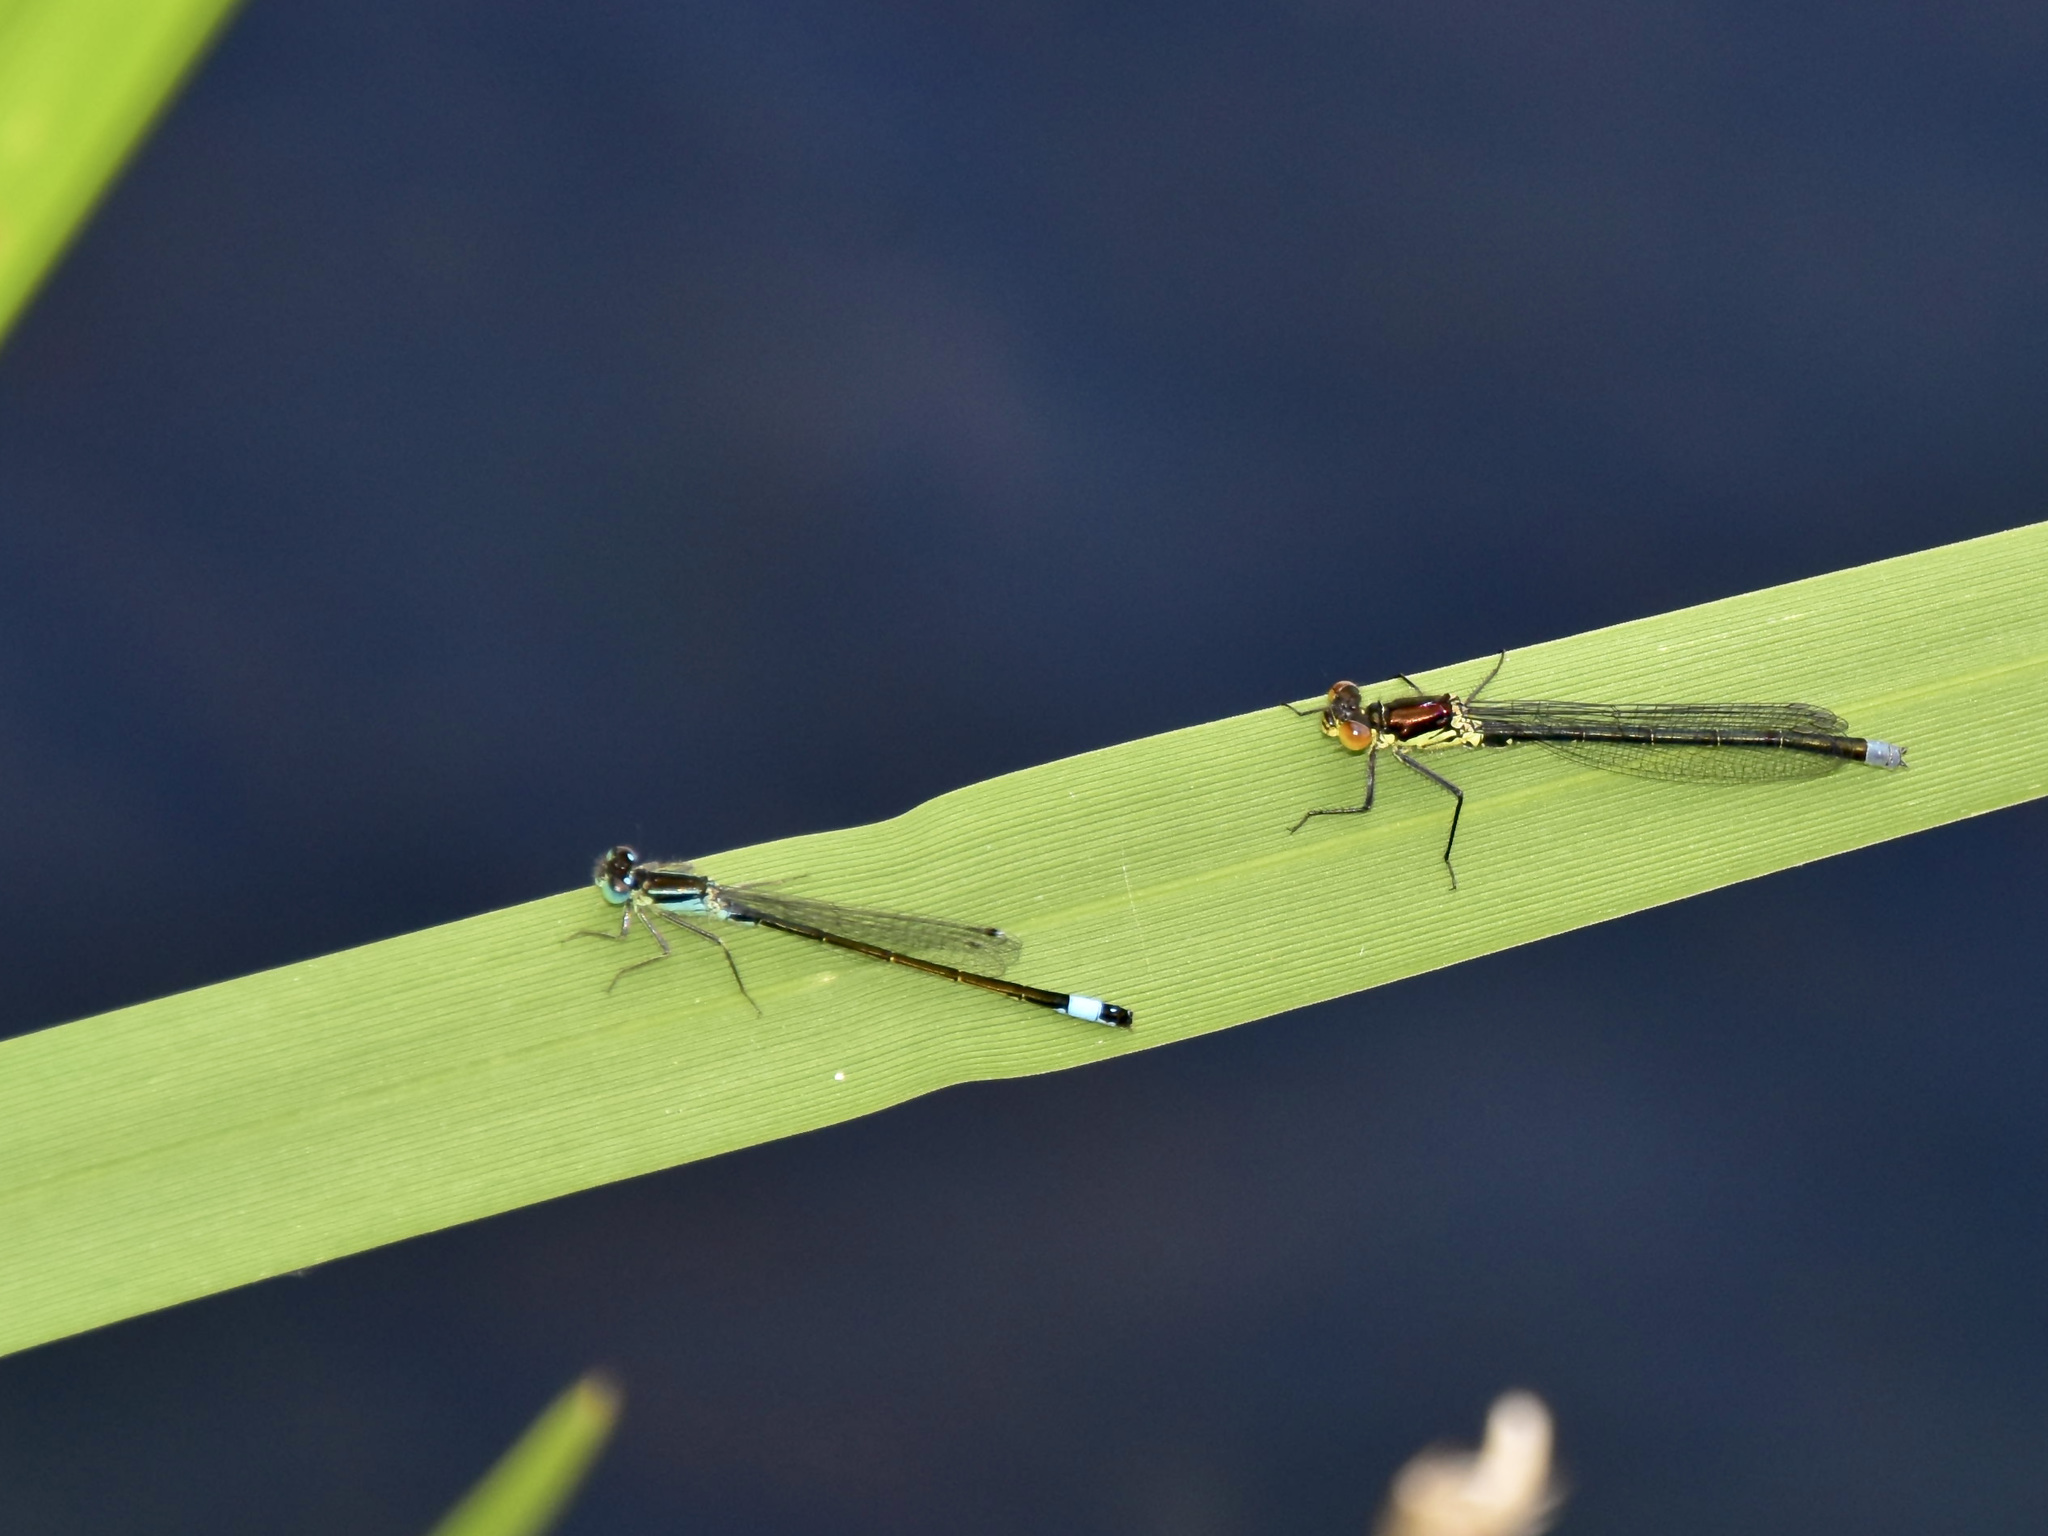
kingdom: Animalia
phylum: Arthropoda
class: Insecta
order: Odonata
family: Coenagrionidae
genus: Erythromma
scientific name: Erythromma najas
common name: Red-eyed damselfly
